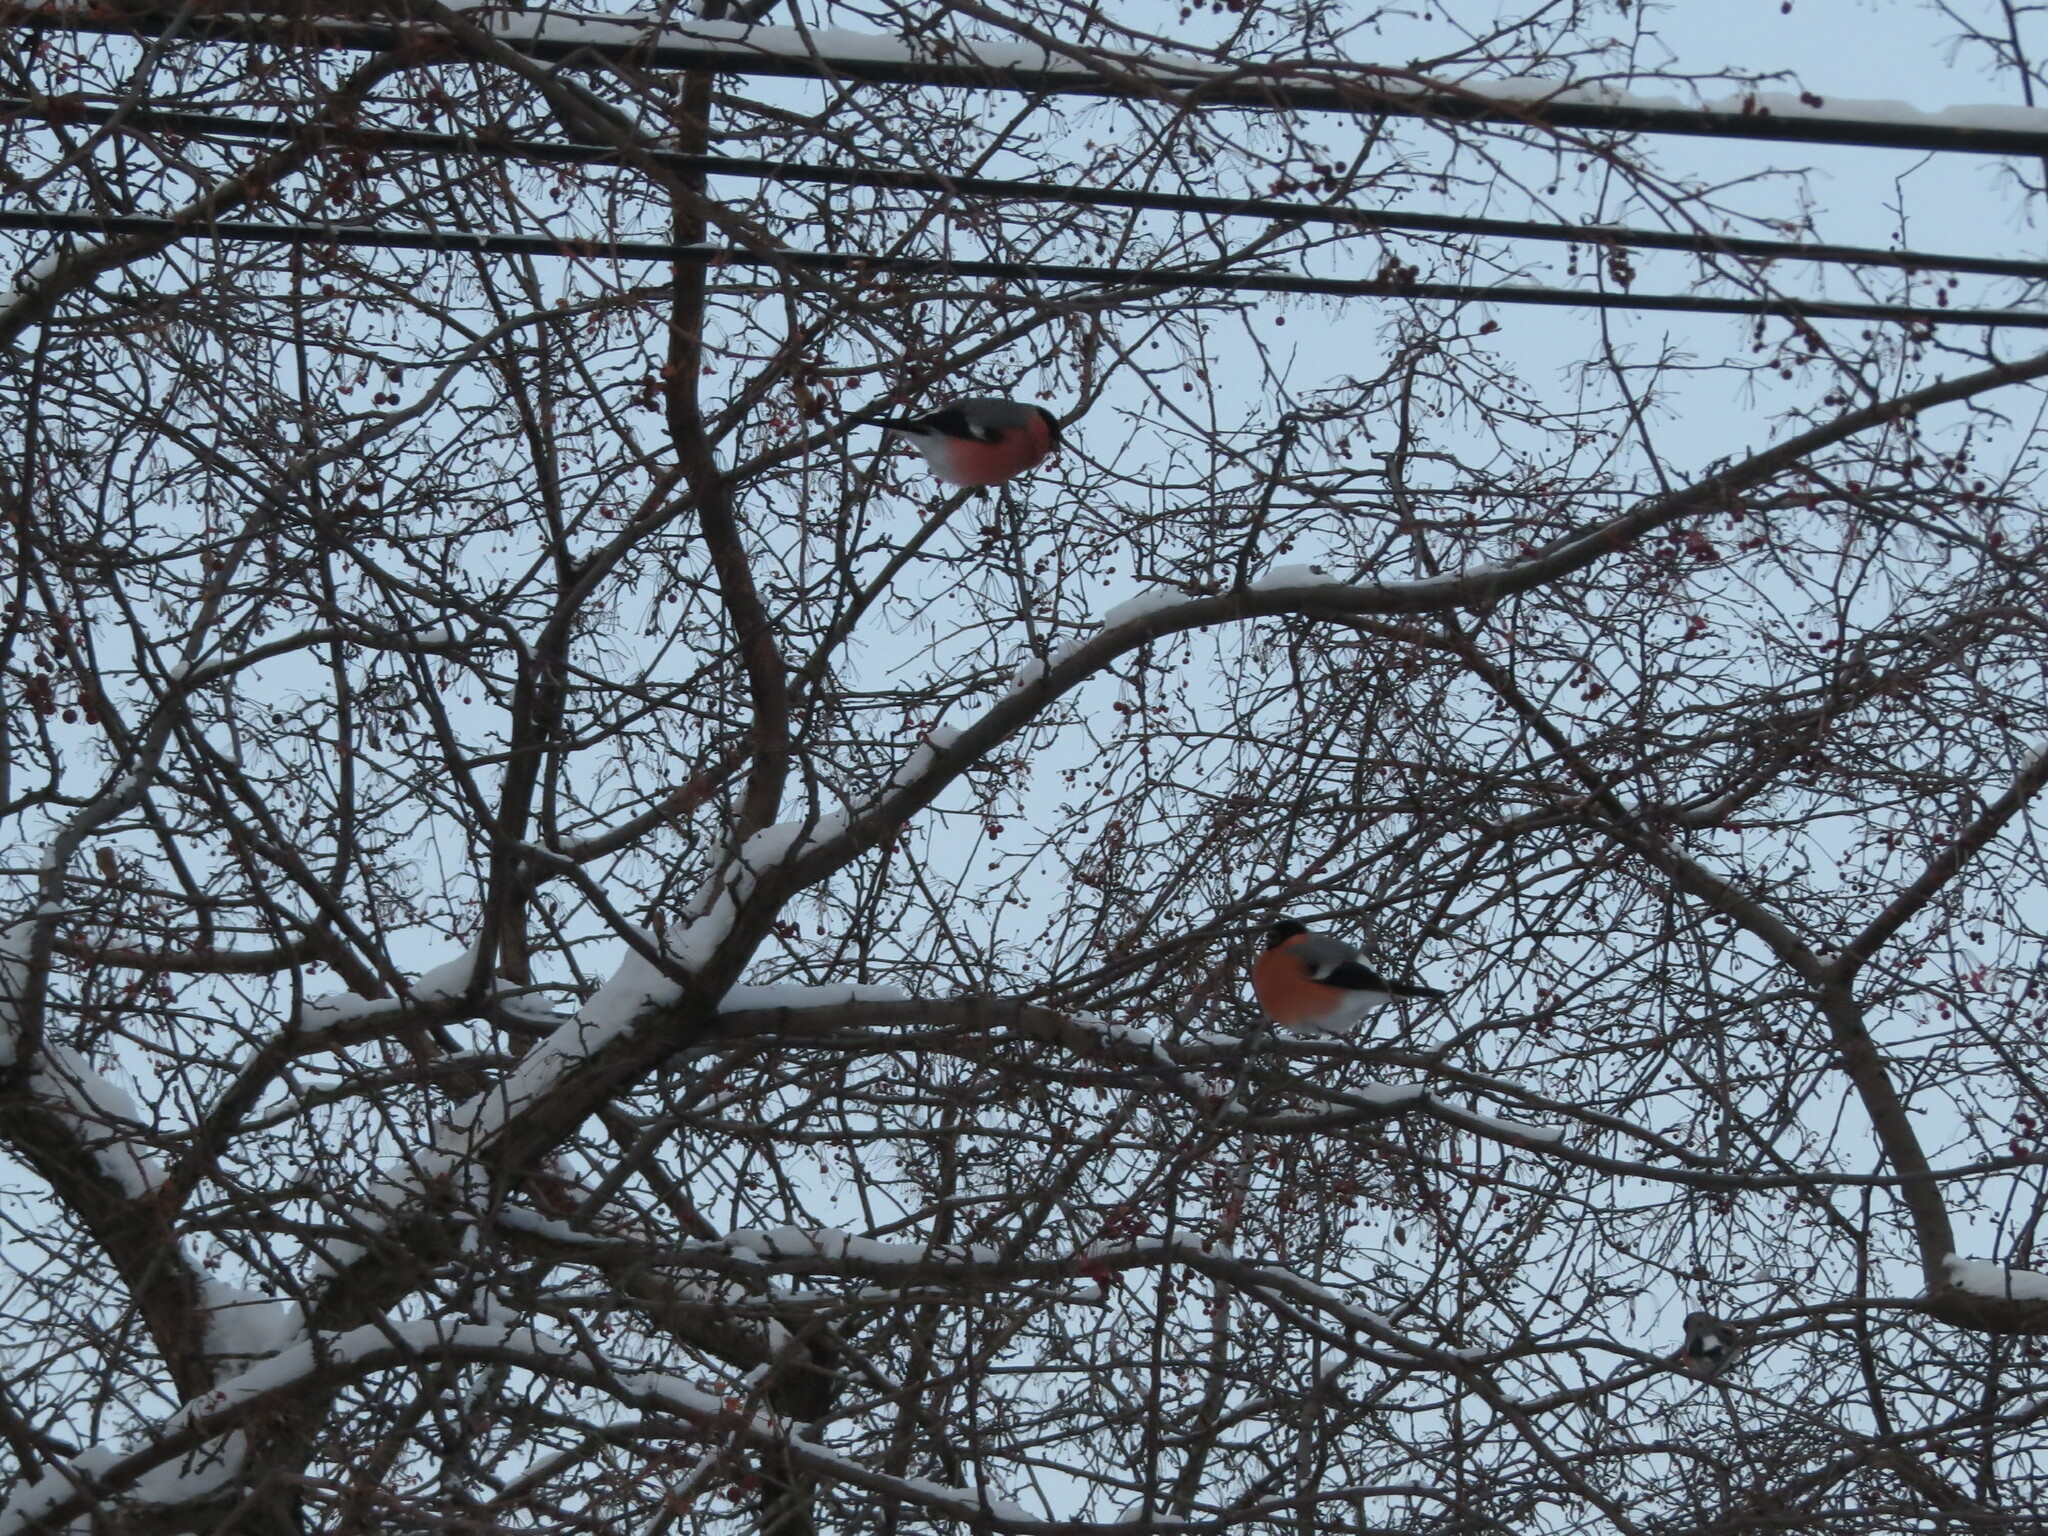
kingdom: Animalia
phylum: Chordata
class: Aves
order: Passeriformes
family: Fringillidae
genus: Pyrrhula
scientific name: Pyrrhula pyrrhula
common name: Eurasian bullfinch
